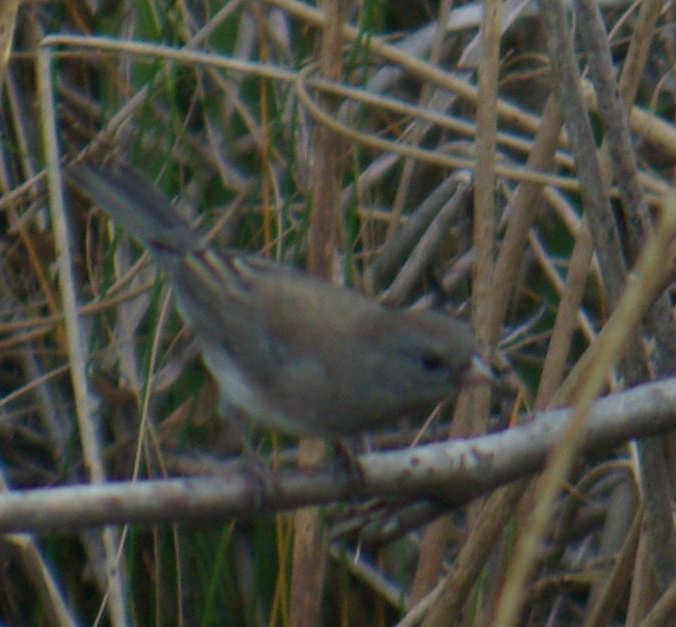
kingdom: Animalia
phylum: Chordata
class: Aves
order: Passeriformes
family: Passerellidae
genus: Junco
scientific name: Junco hyemalis
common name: Dark-eyed junco
